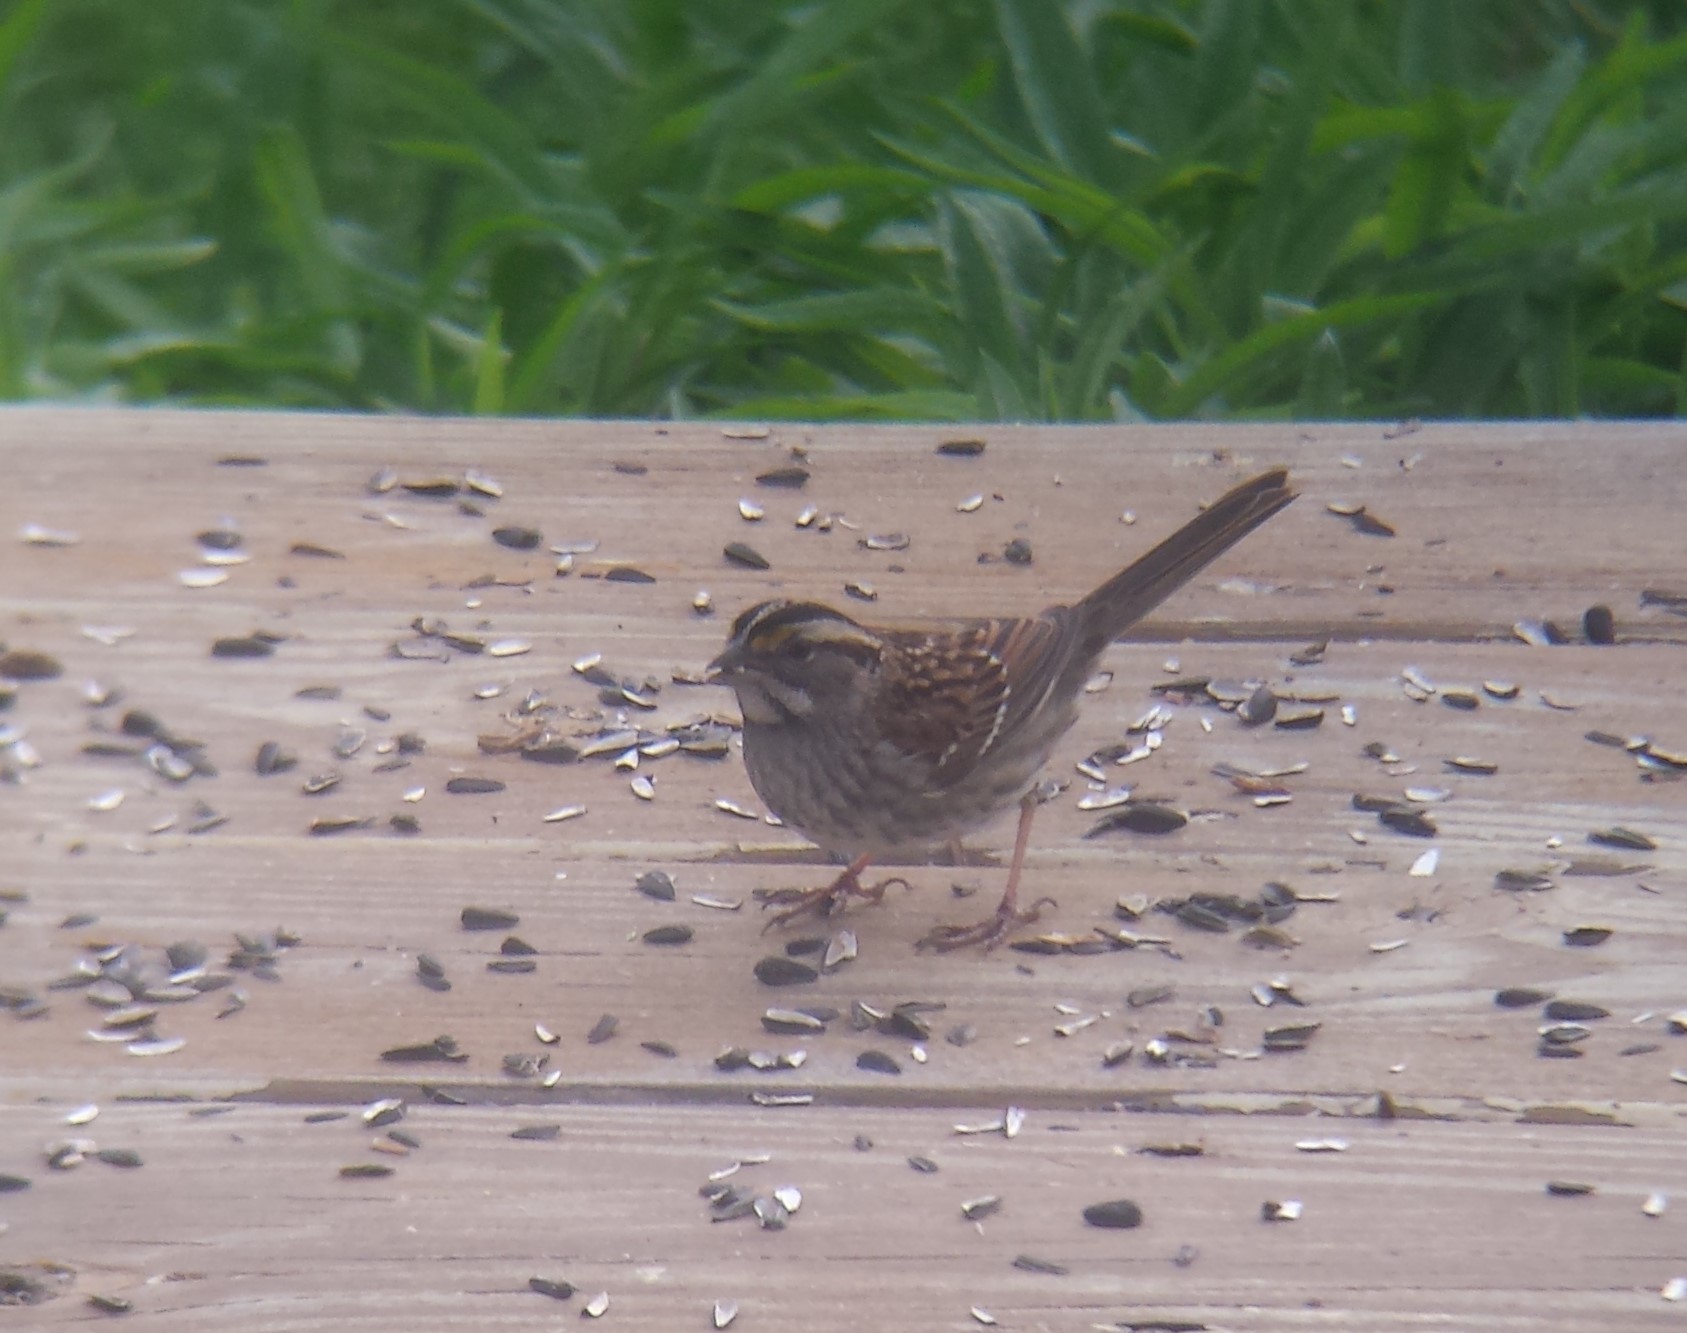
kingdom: Animalia
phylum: Chordata
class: Aves
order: Passeriformes
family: Passerellidae
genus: Zonotrichia
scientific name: Zonotrichia albicollis
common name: White-throated sparrow
